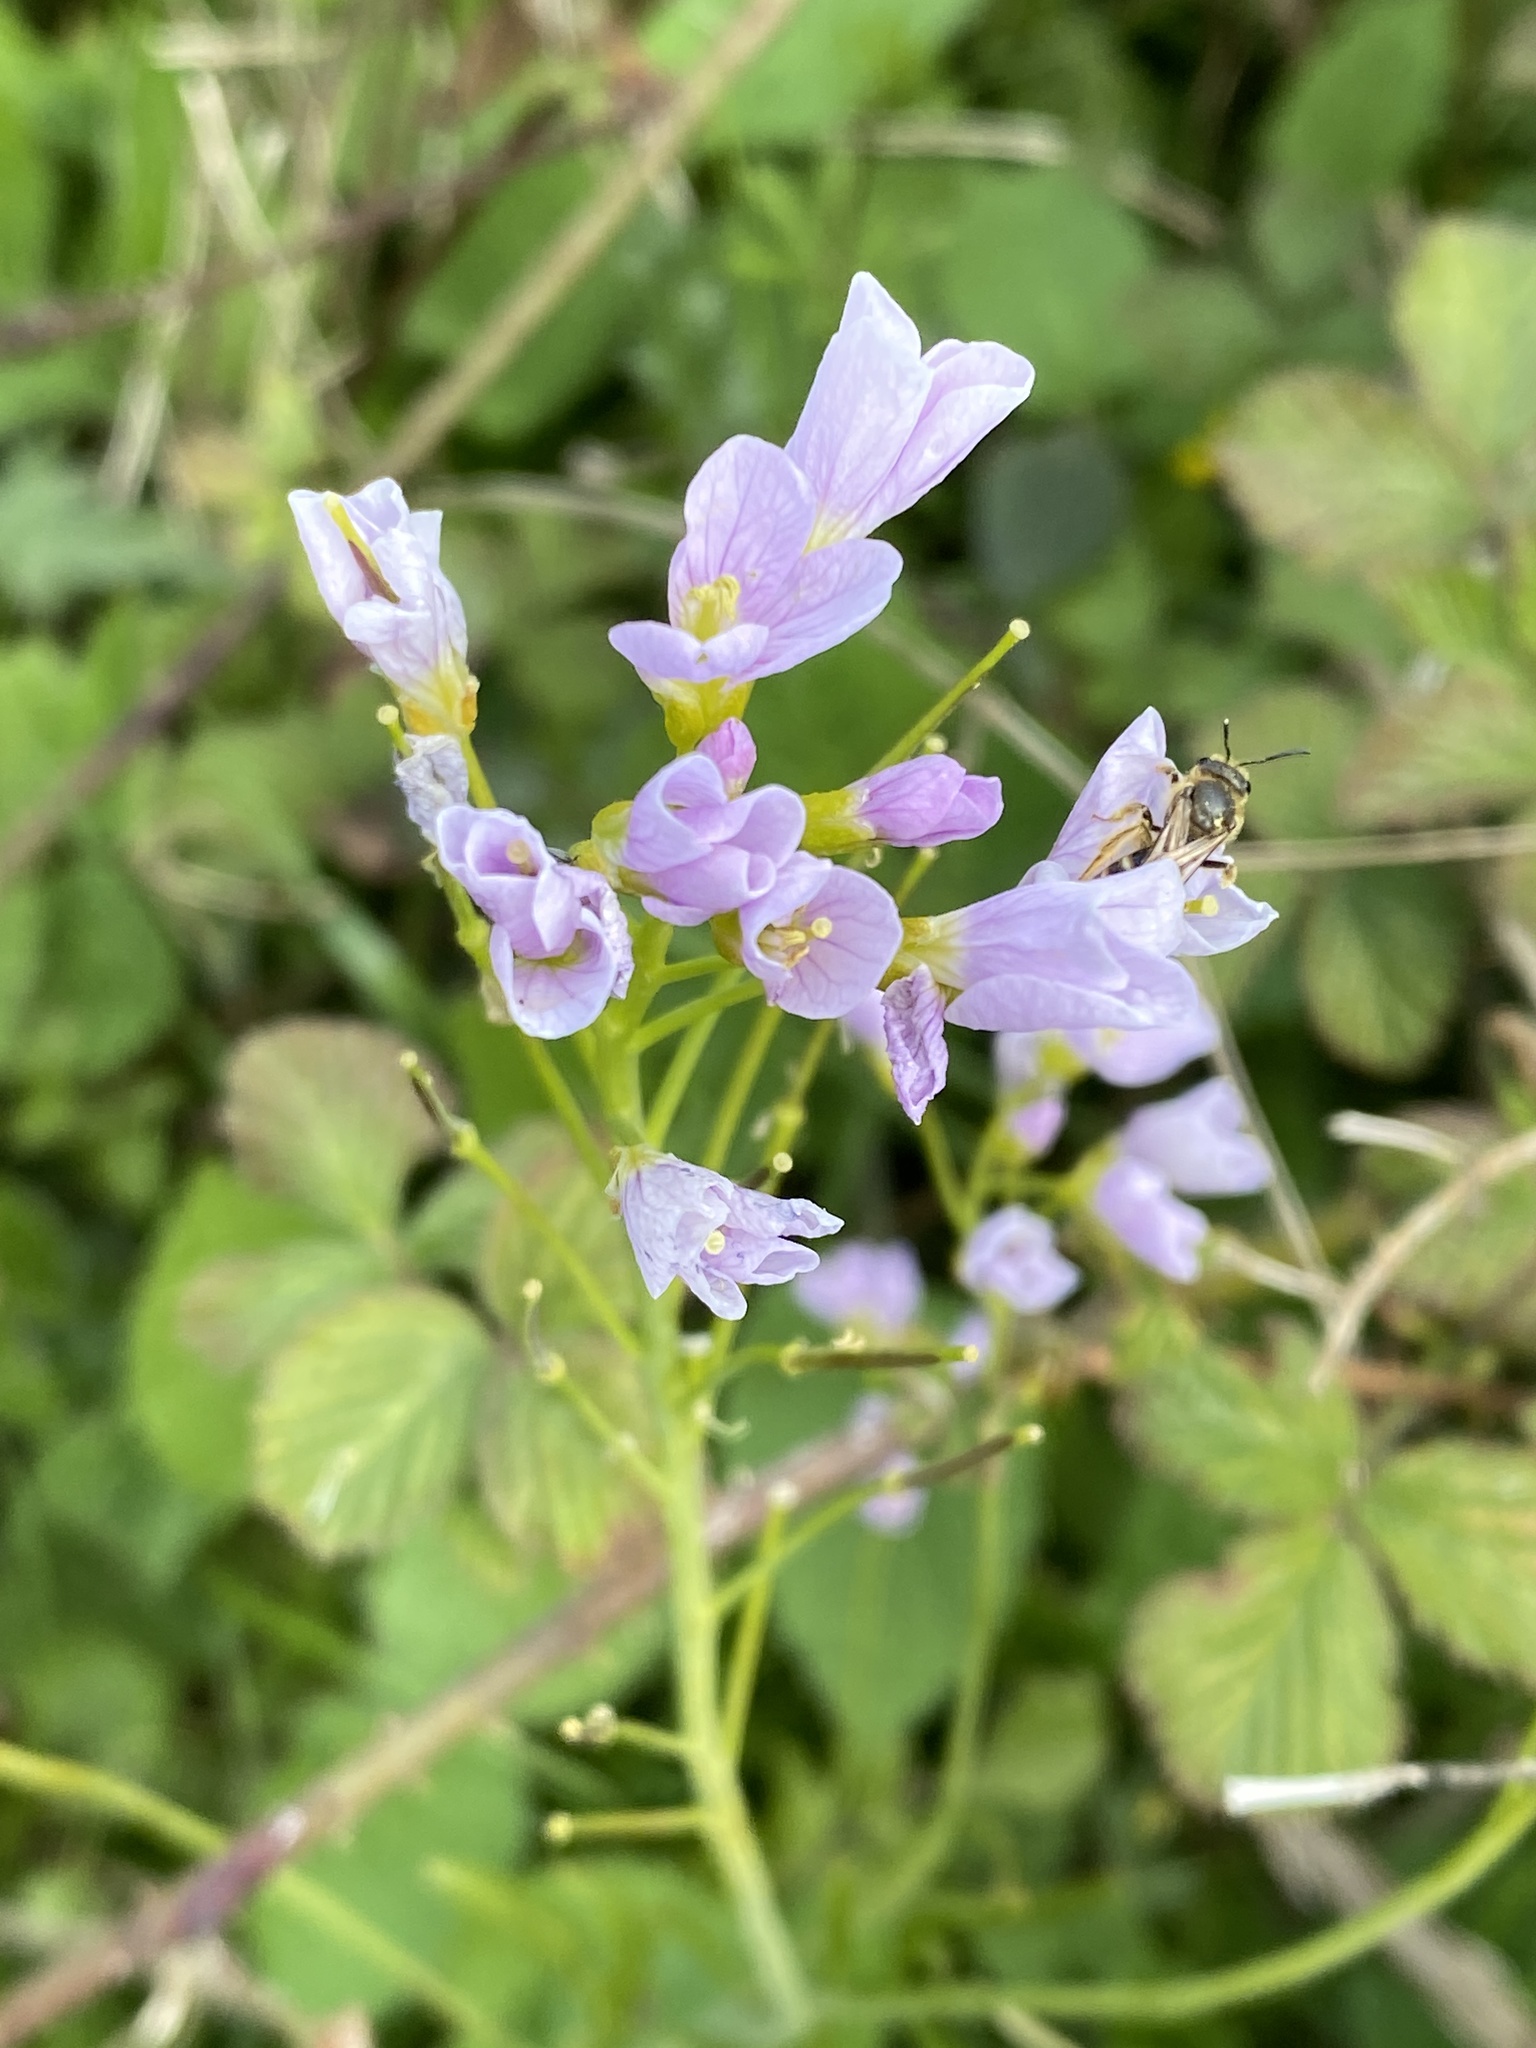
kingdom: Plantae
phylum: Tracheophyta
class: Magnoliopsida
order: Brassicales
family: Brassicaceae
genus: Cardamine
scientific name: Cardamine pratensis
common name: Cuckoo flower
